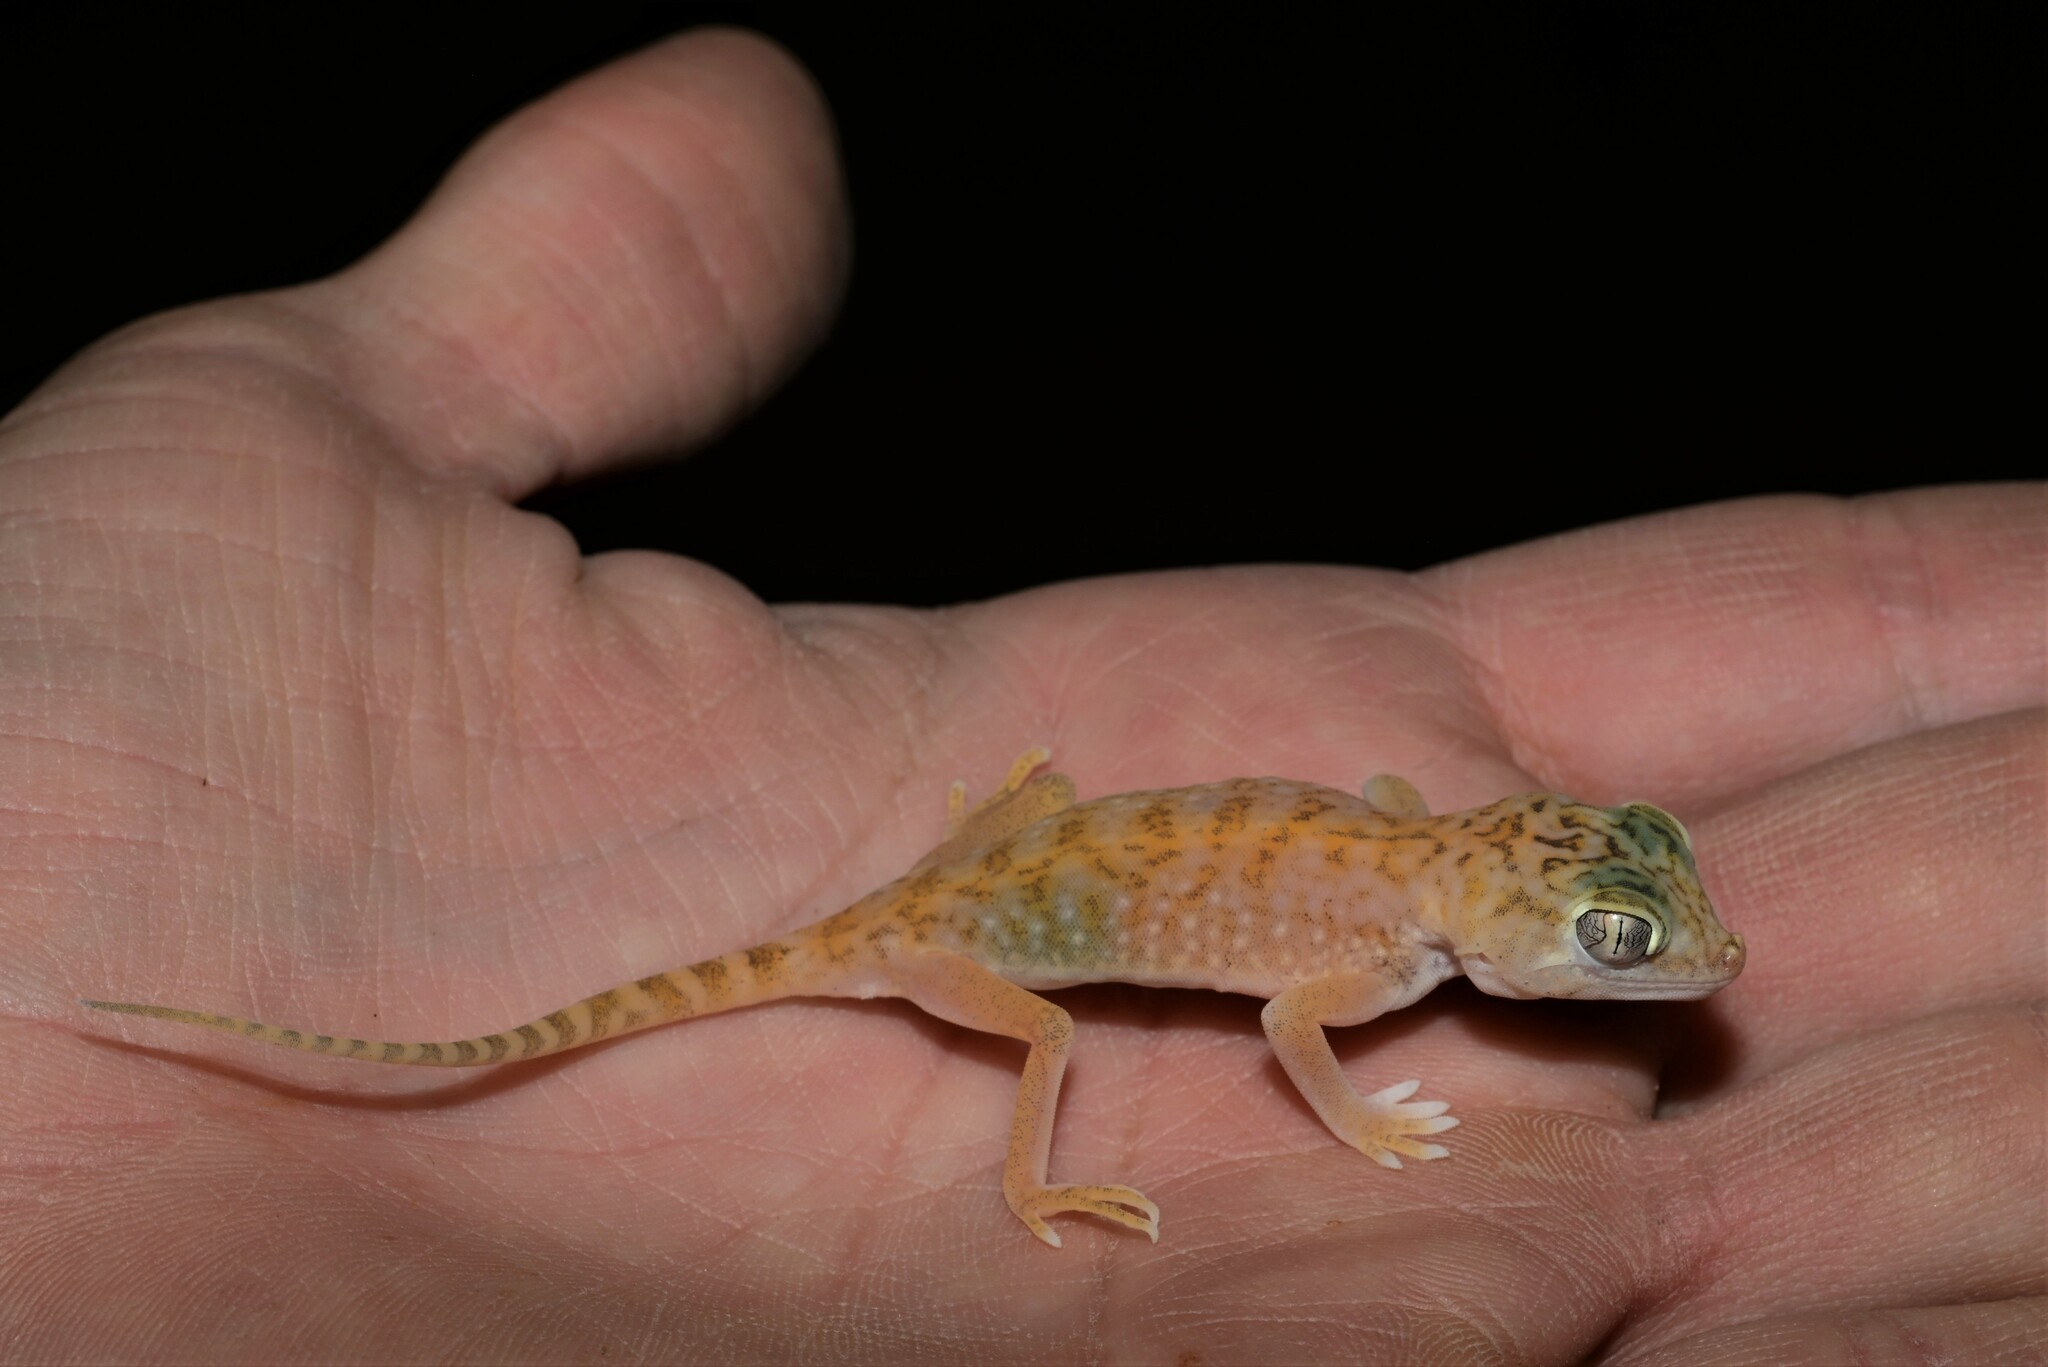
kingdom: Animalia
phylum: Chordata
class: Squamata
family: Gekkonidae
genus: Stenodactylus
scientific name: Stenodactylus doriae
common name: Dune sand gecko
